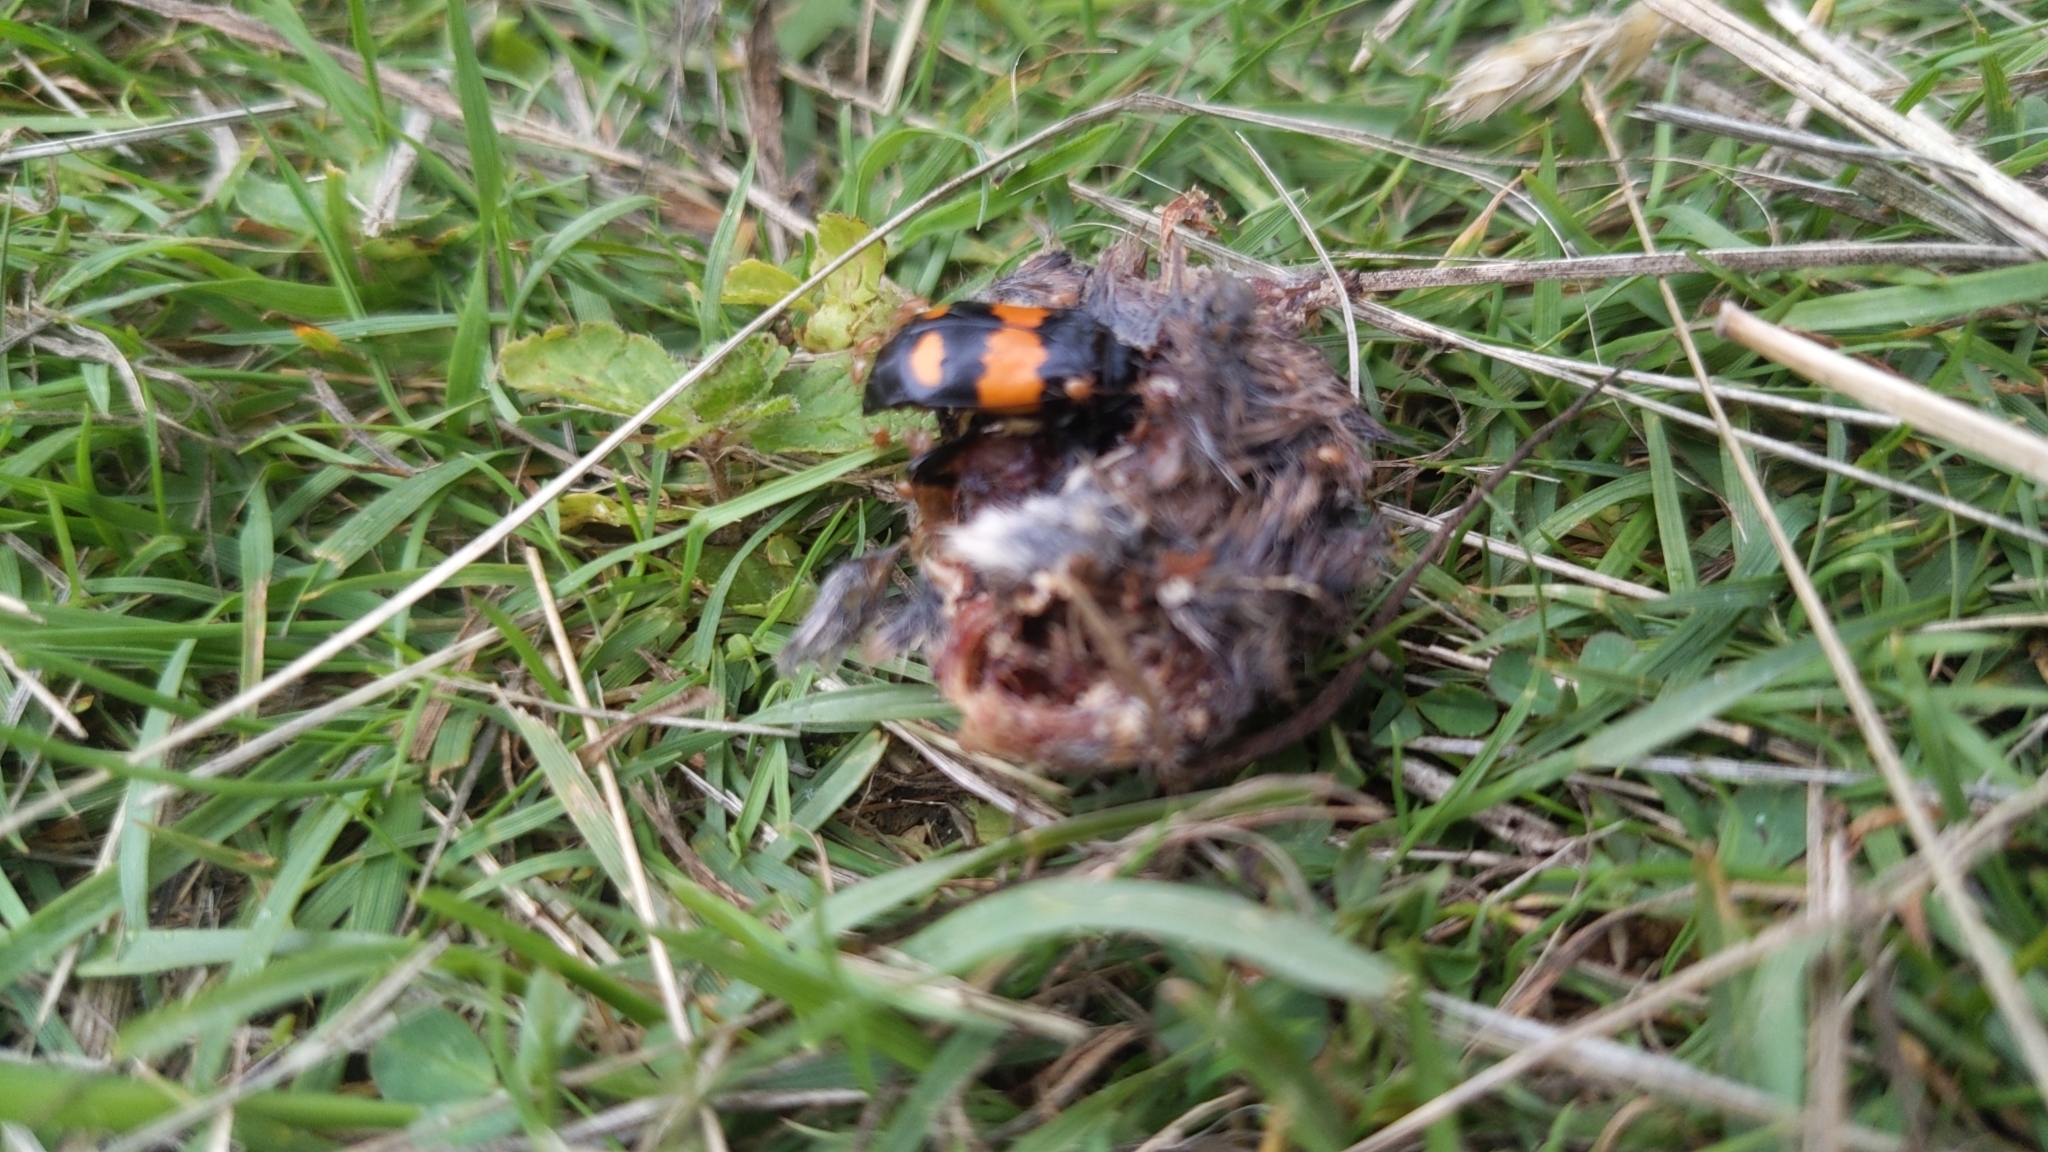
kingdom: Animalia
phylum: Arthropoda
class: Insecta
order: Coleoptera
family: Staphylinidae
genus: Nicrophorus
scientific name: Nicrophorus vespilloides
